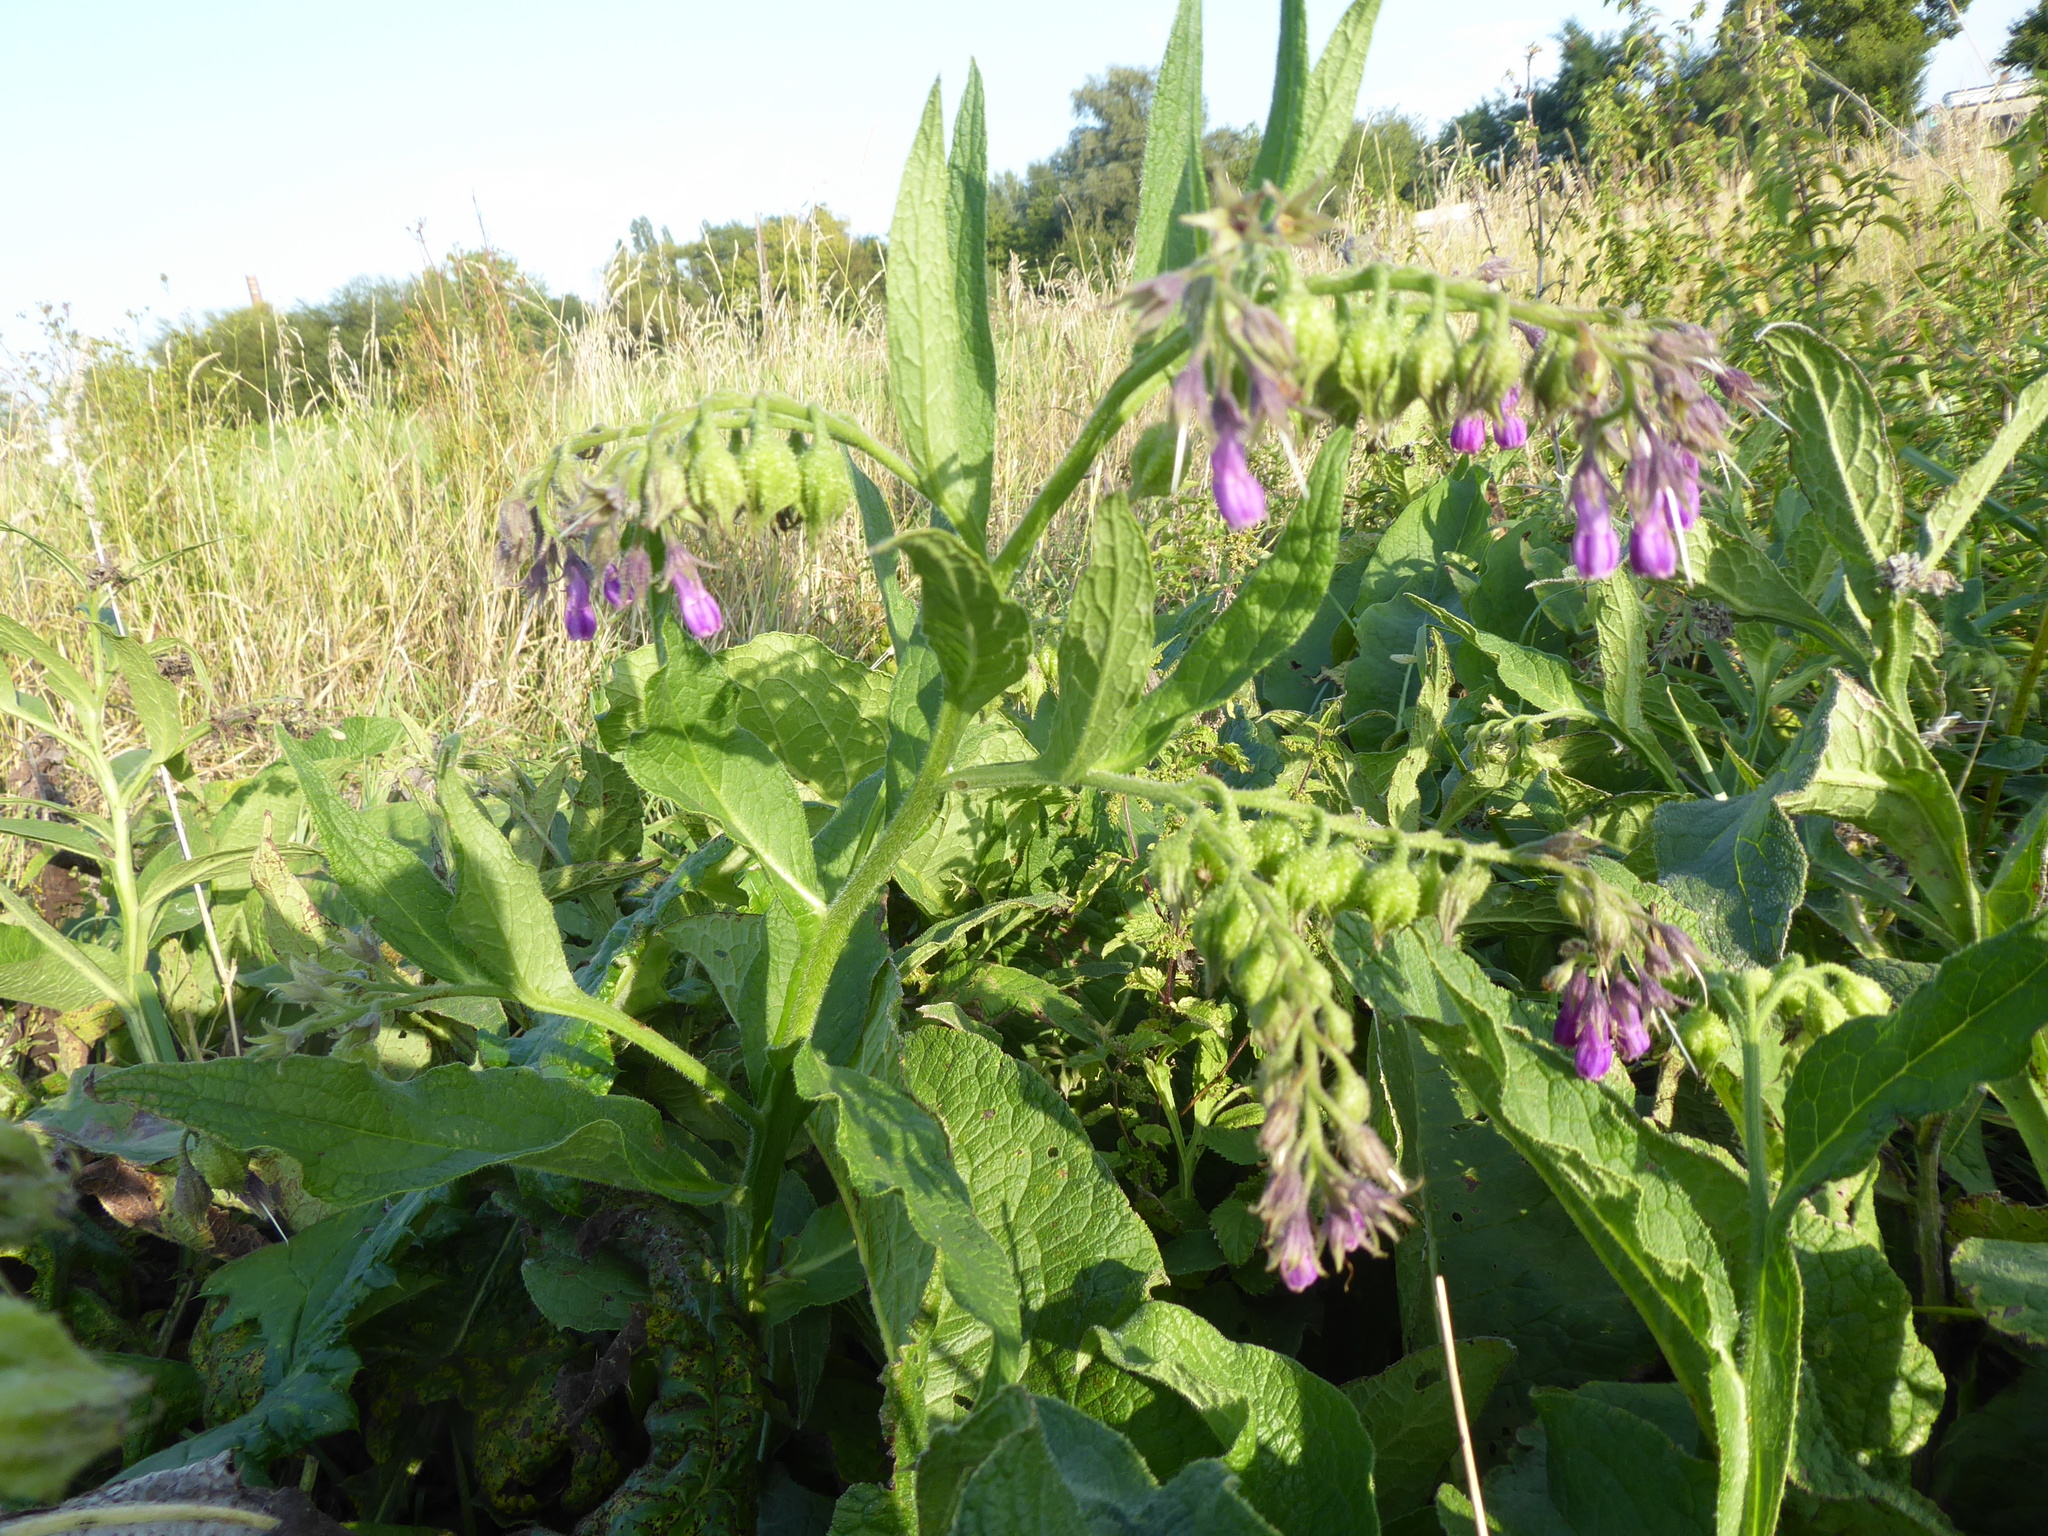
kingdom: Plantae
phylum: Tracheophyta
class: Magnoliopsida
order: Boraginales
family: Boraginaceae
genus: Symphytum
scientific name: Symphytum officinale
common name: Common comfrey
